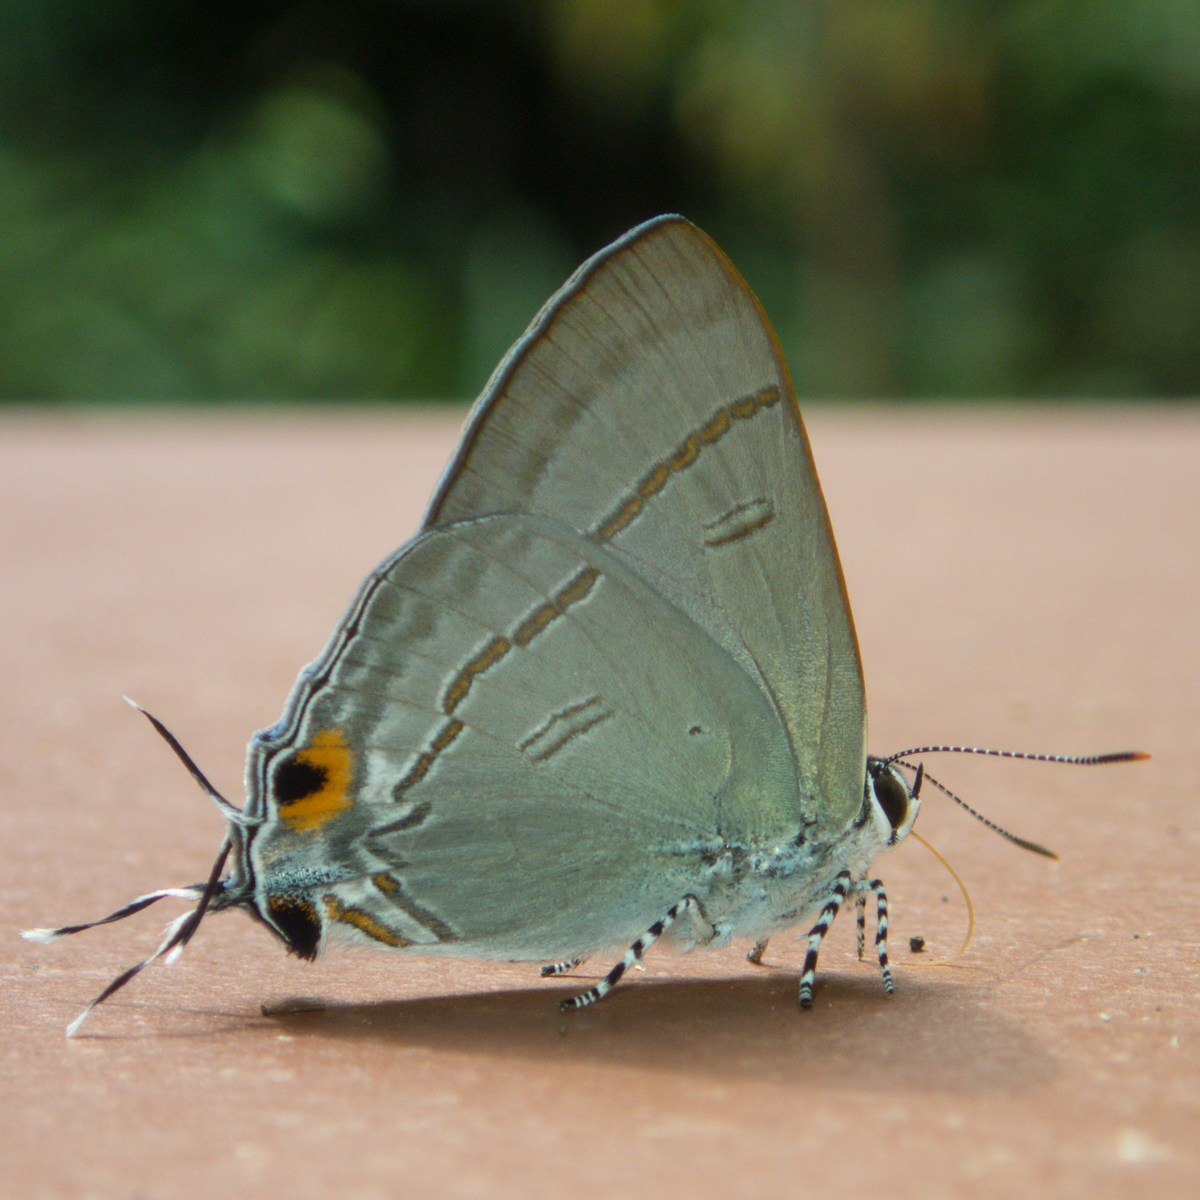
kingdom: Animalia
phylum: Arthropoda
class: Insecta
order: Lepidoptera
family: Lycaenidae
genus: Hypolycaena
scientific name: Hypolycaena erylus
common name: Common tit
